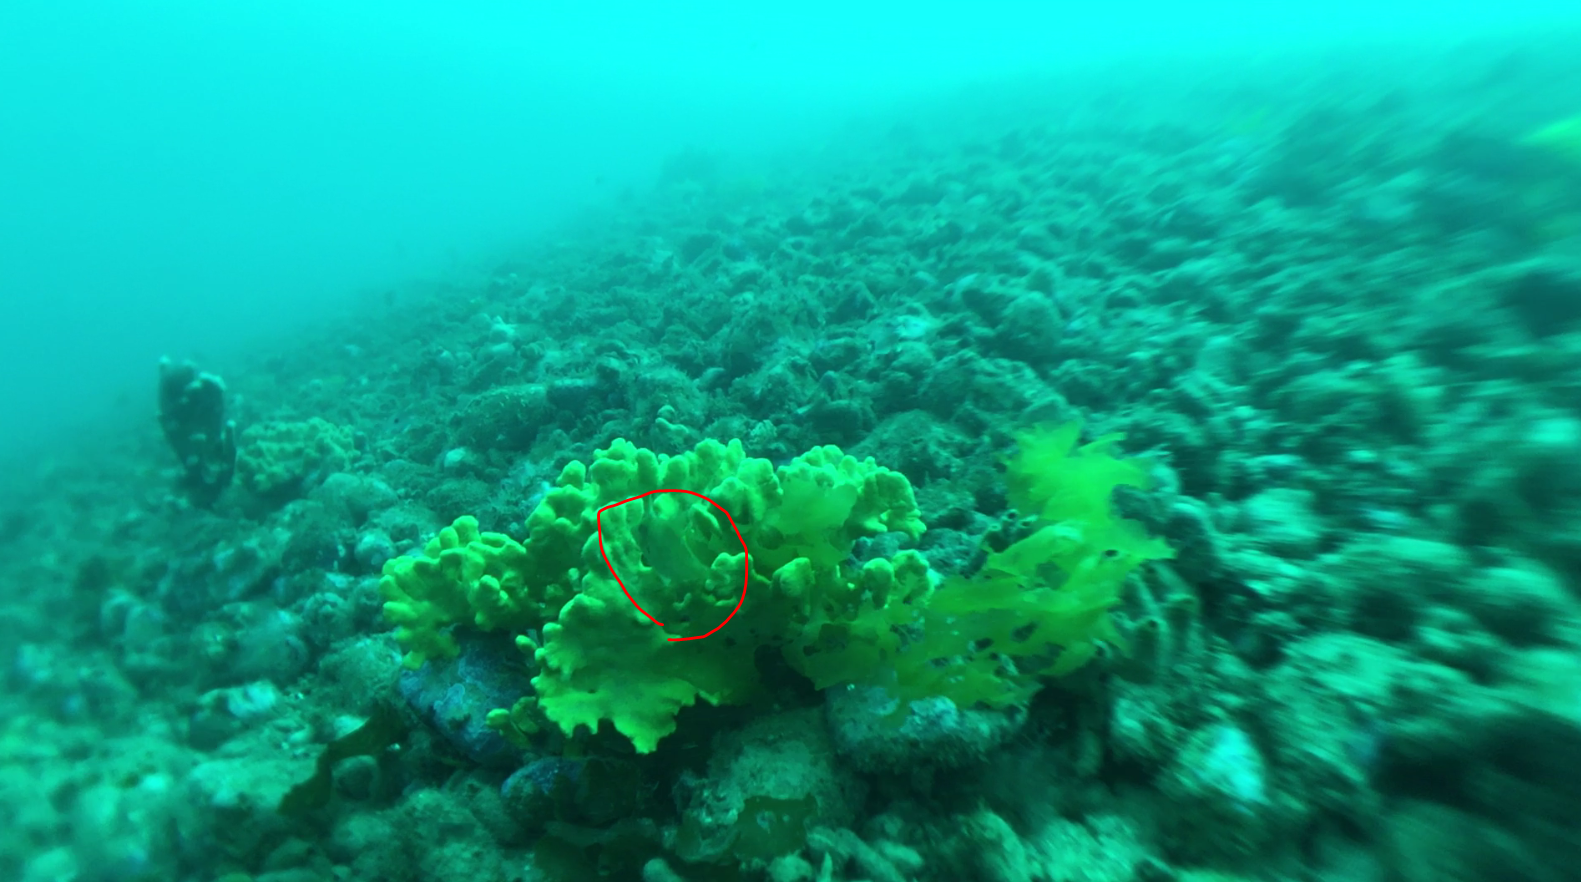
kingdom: Animalia
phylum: Chordata
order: Tetraodontiformes
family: Monacanthidae
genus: Meuschenia
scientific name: Meuschenia scaber
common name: Cosmopolitan leatherjacket
